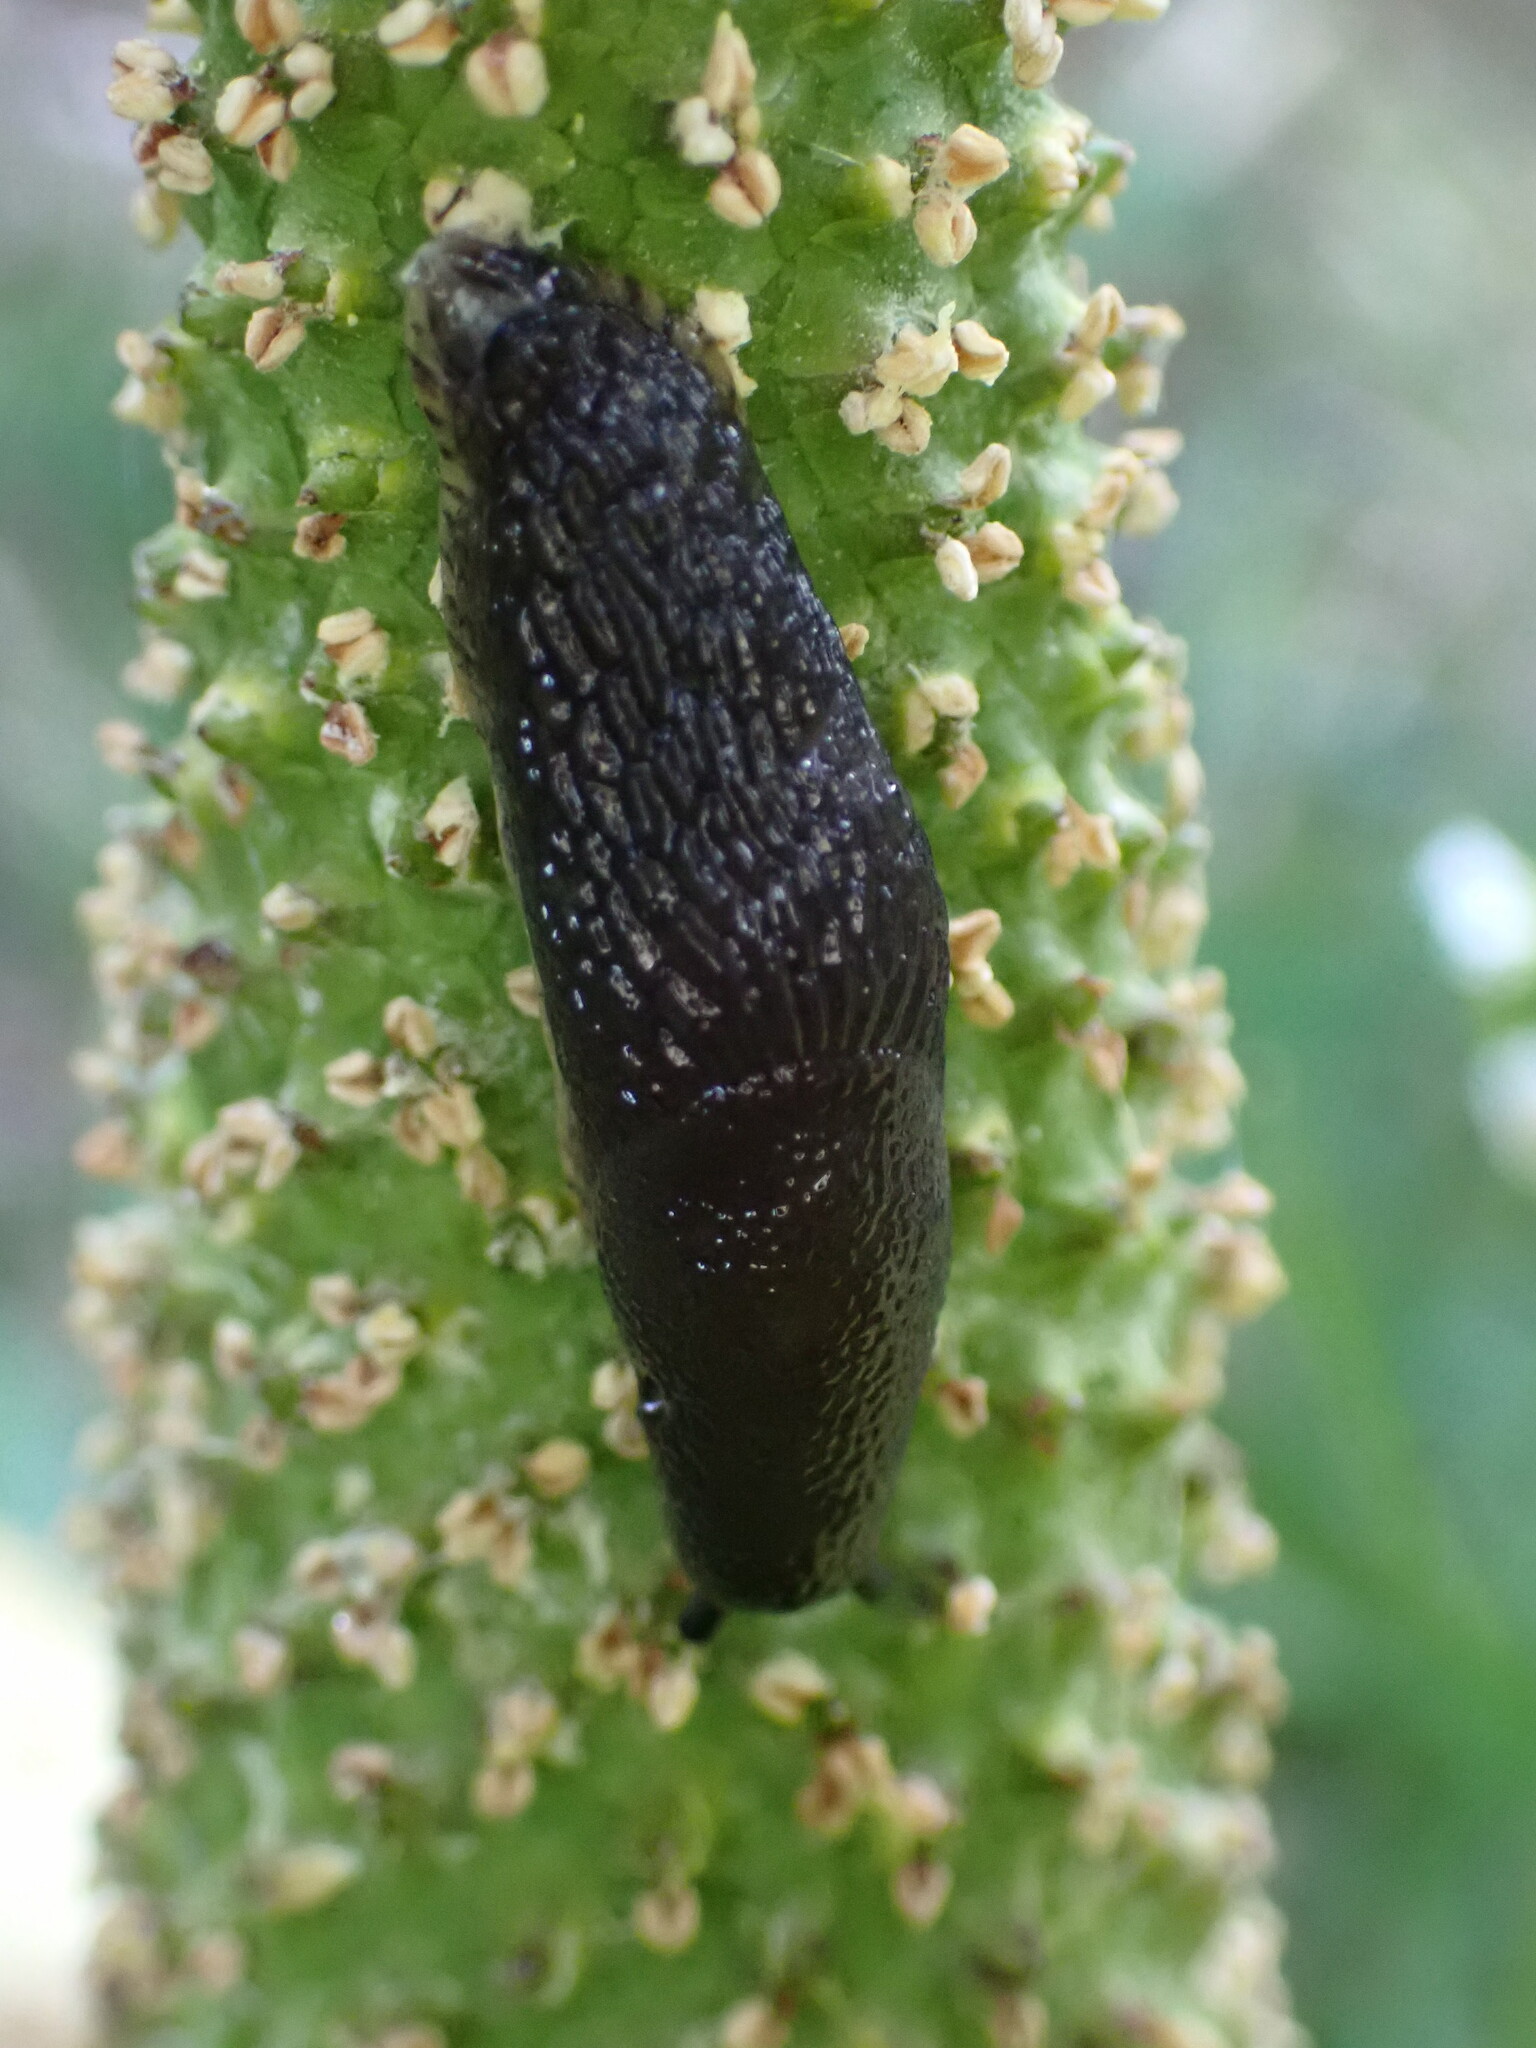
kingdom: Animalia
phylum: Mollusca
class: Gastropoda
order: Stylommatophora
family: Arionidae
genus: Arion
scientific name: Arion
